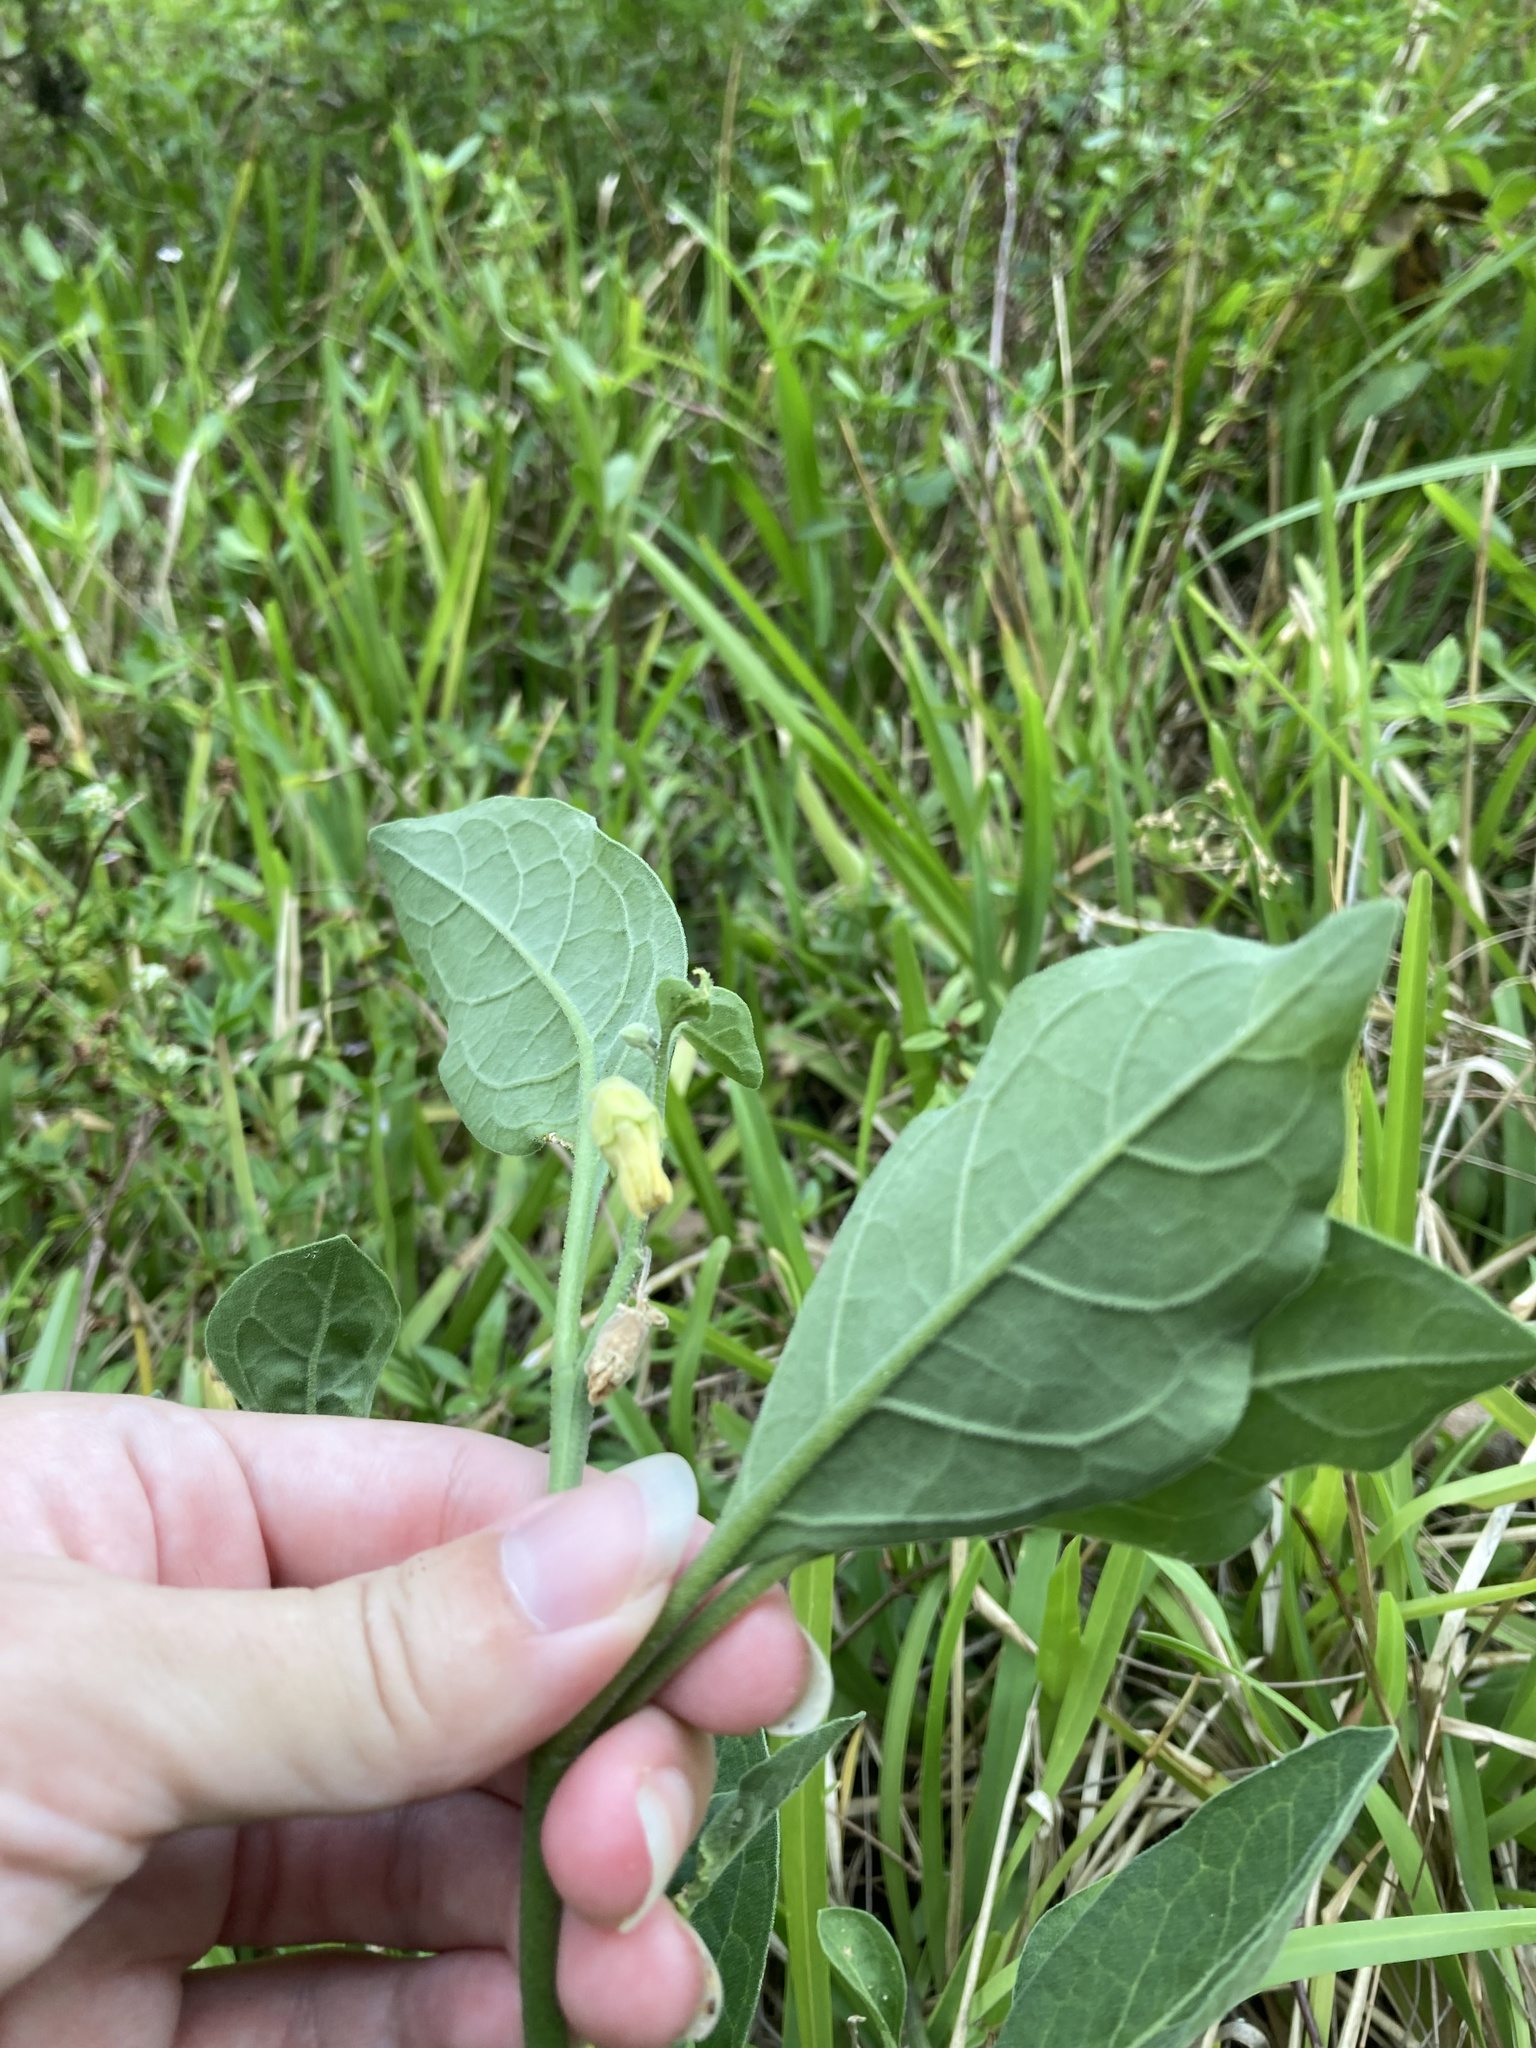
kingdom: Plantae
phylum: Tracheophyta
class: Magnoliopsida
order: Solanales
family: Solanaceae
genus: Physalis
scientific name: Physalis walteri
